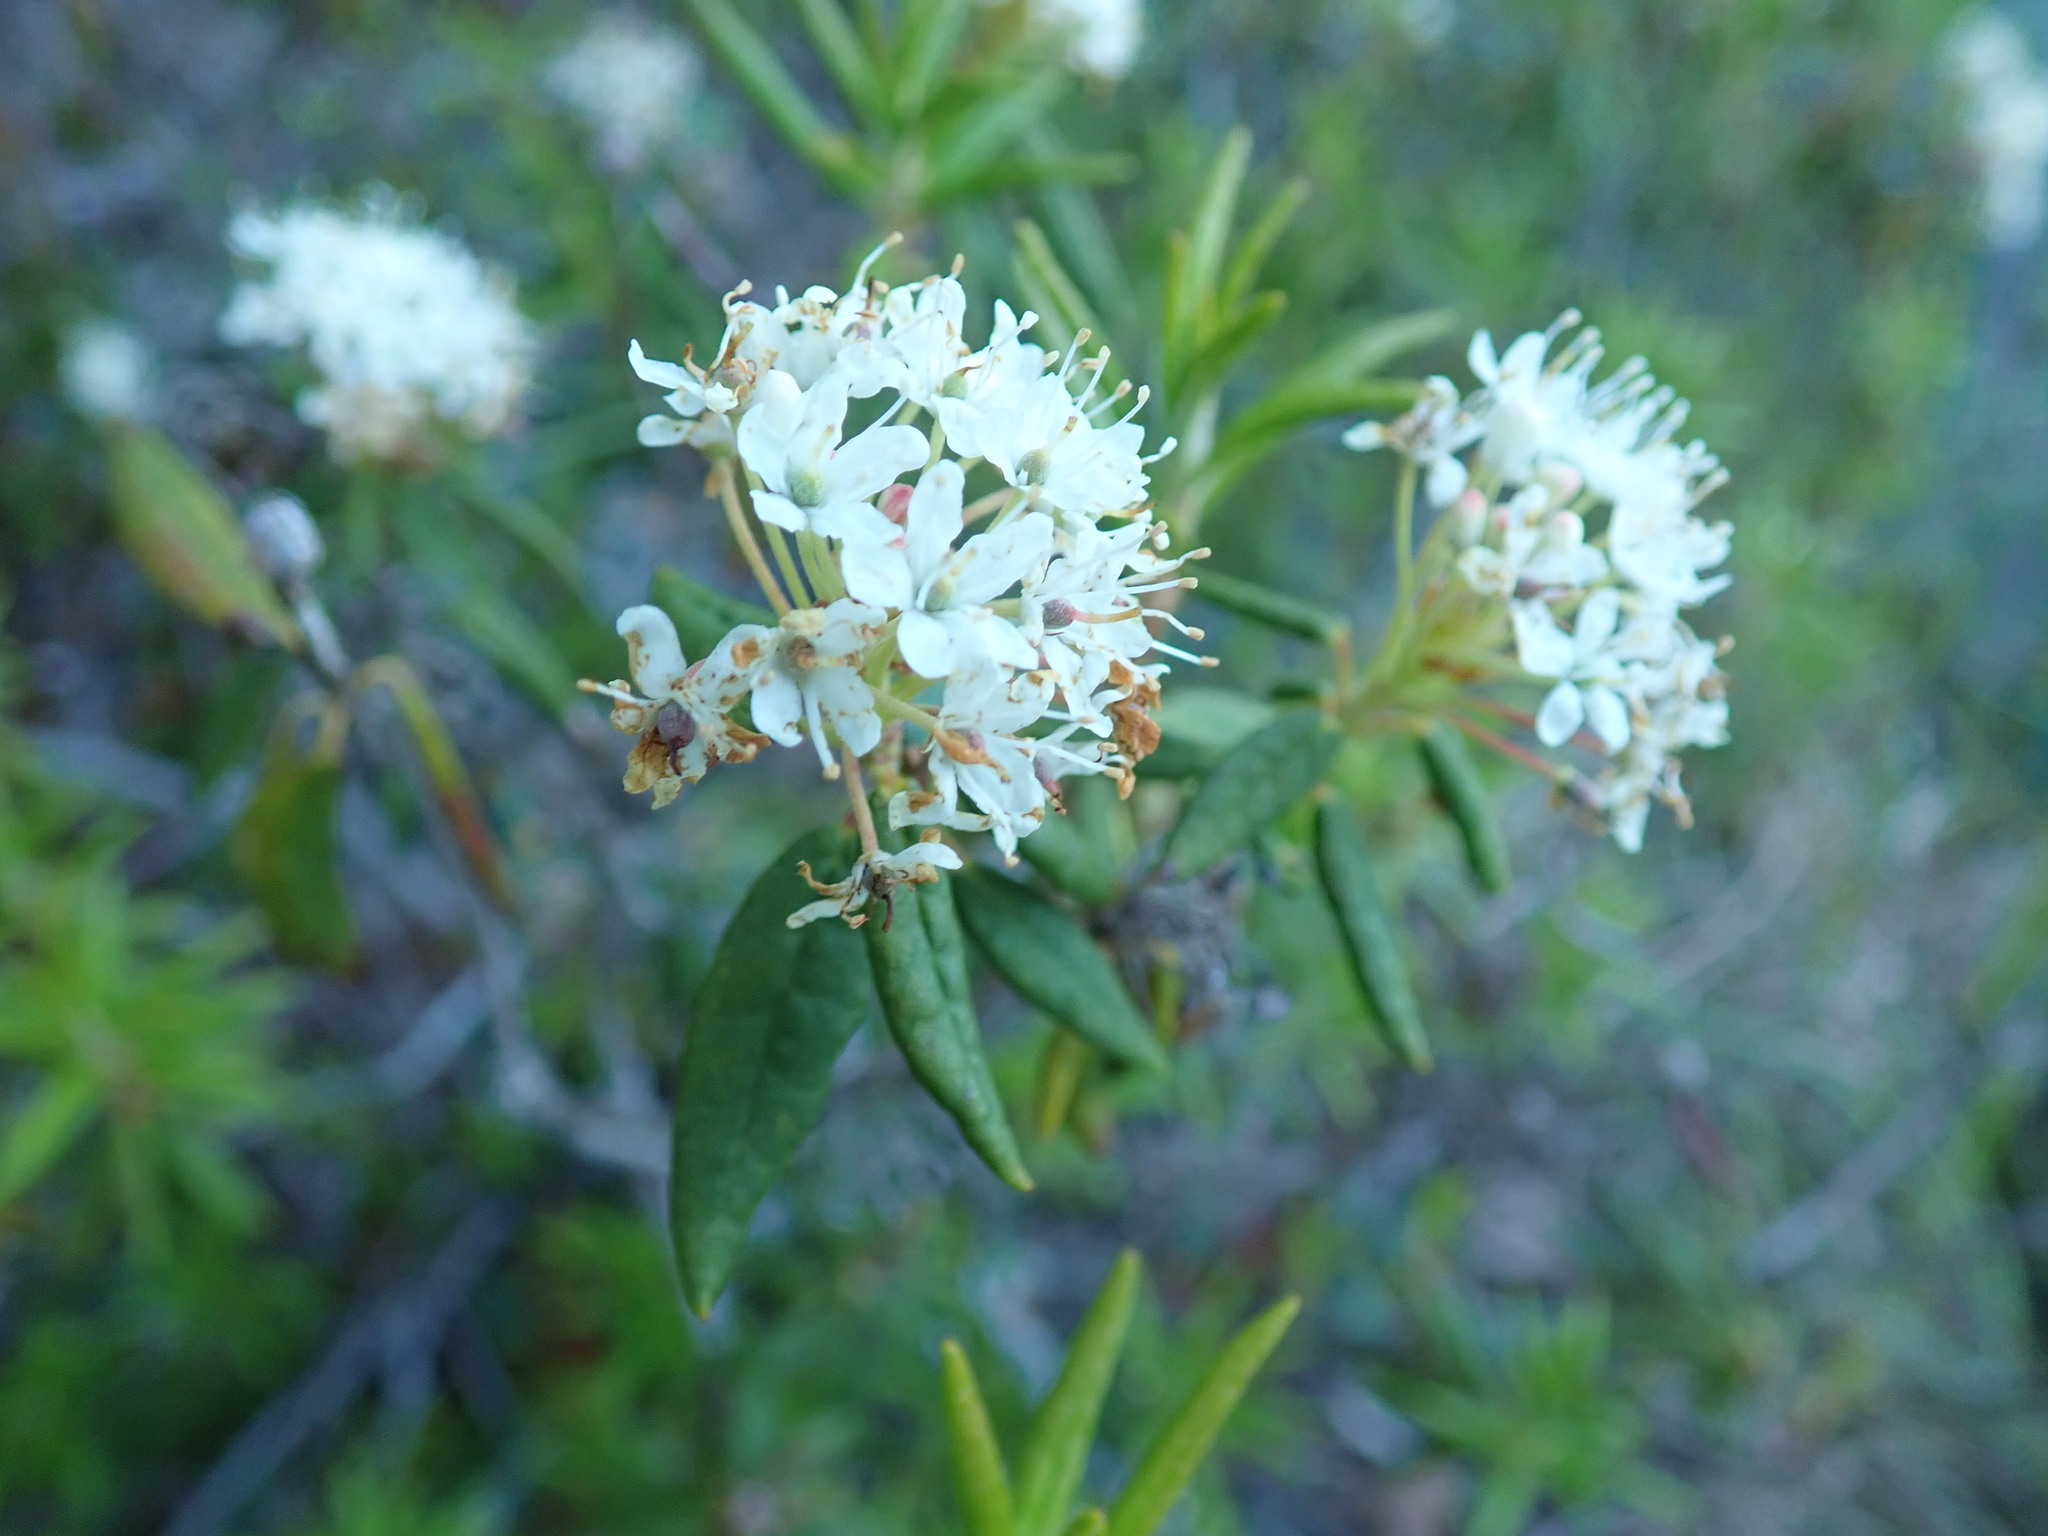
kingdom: Plantae
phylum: Tracheophyta
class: Magnoliopsida
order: Ericales
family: Ericaceae
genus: Rhododendron
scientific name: Rhododendron groenlandicum
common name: Bog labrador tea
